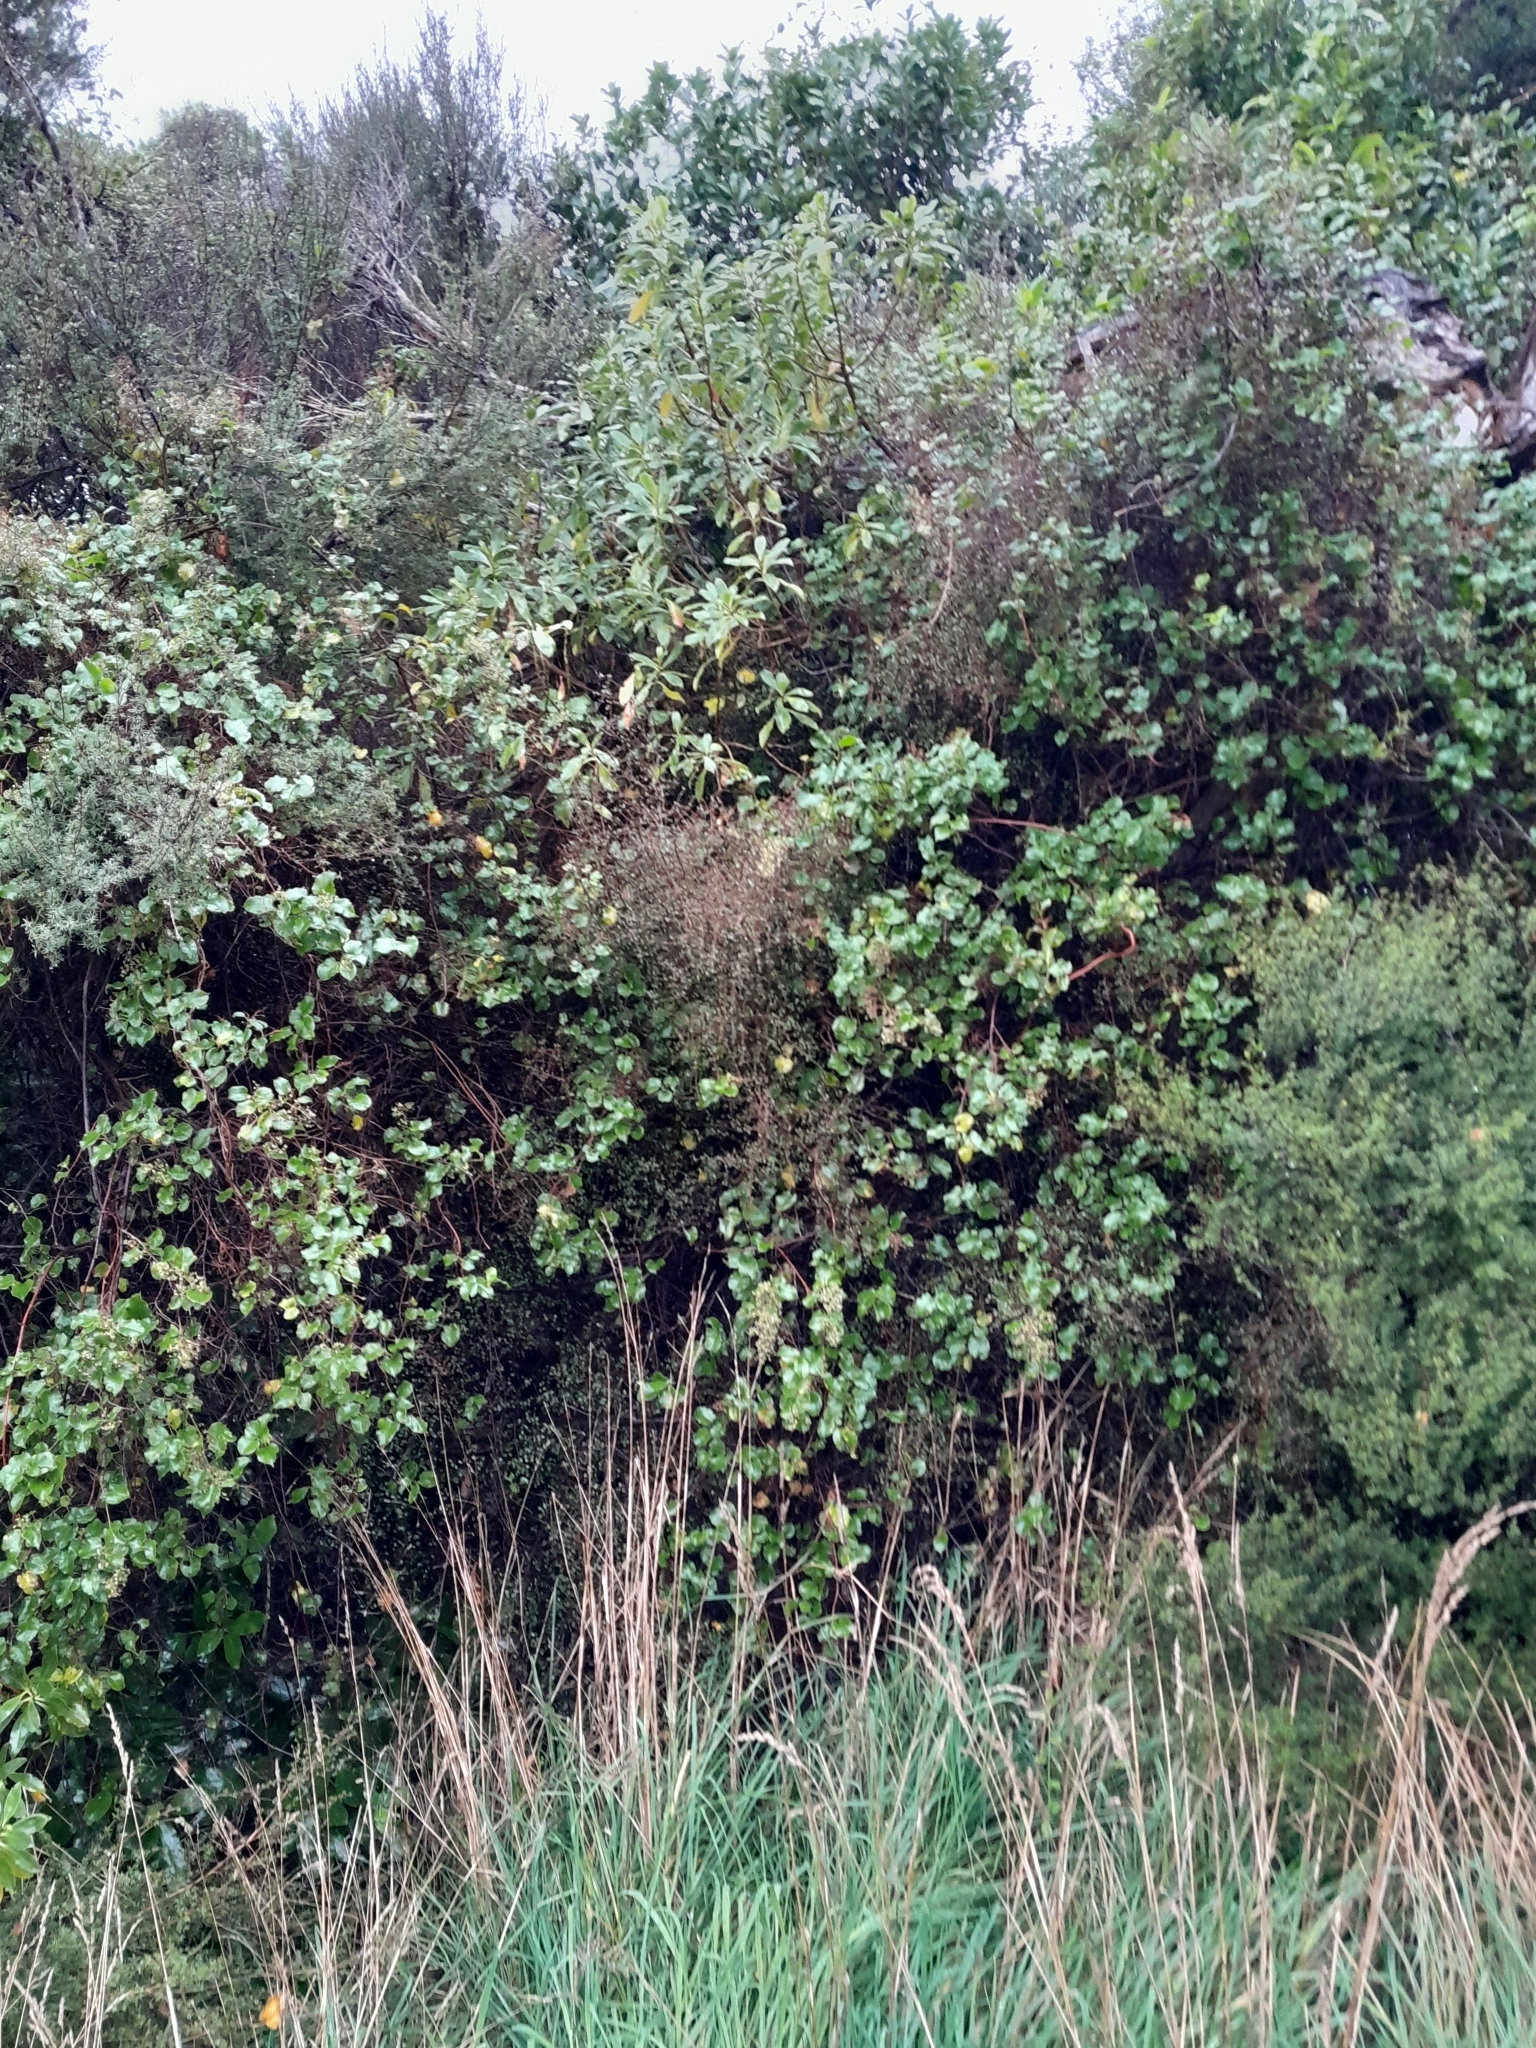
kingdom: Plantae
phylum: Tracheophyta
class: Magnoliopsida
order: Caryophyllales
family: Polygonaceae
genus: Muehlenbeckia
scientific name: Muehlenbeckia australis
